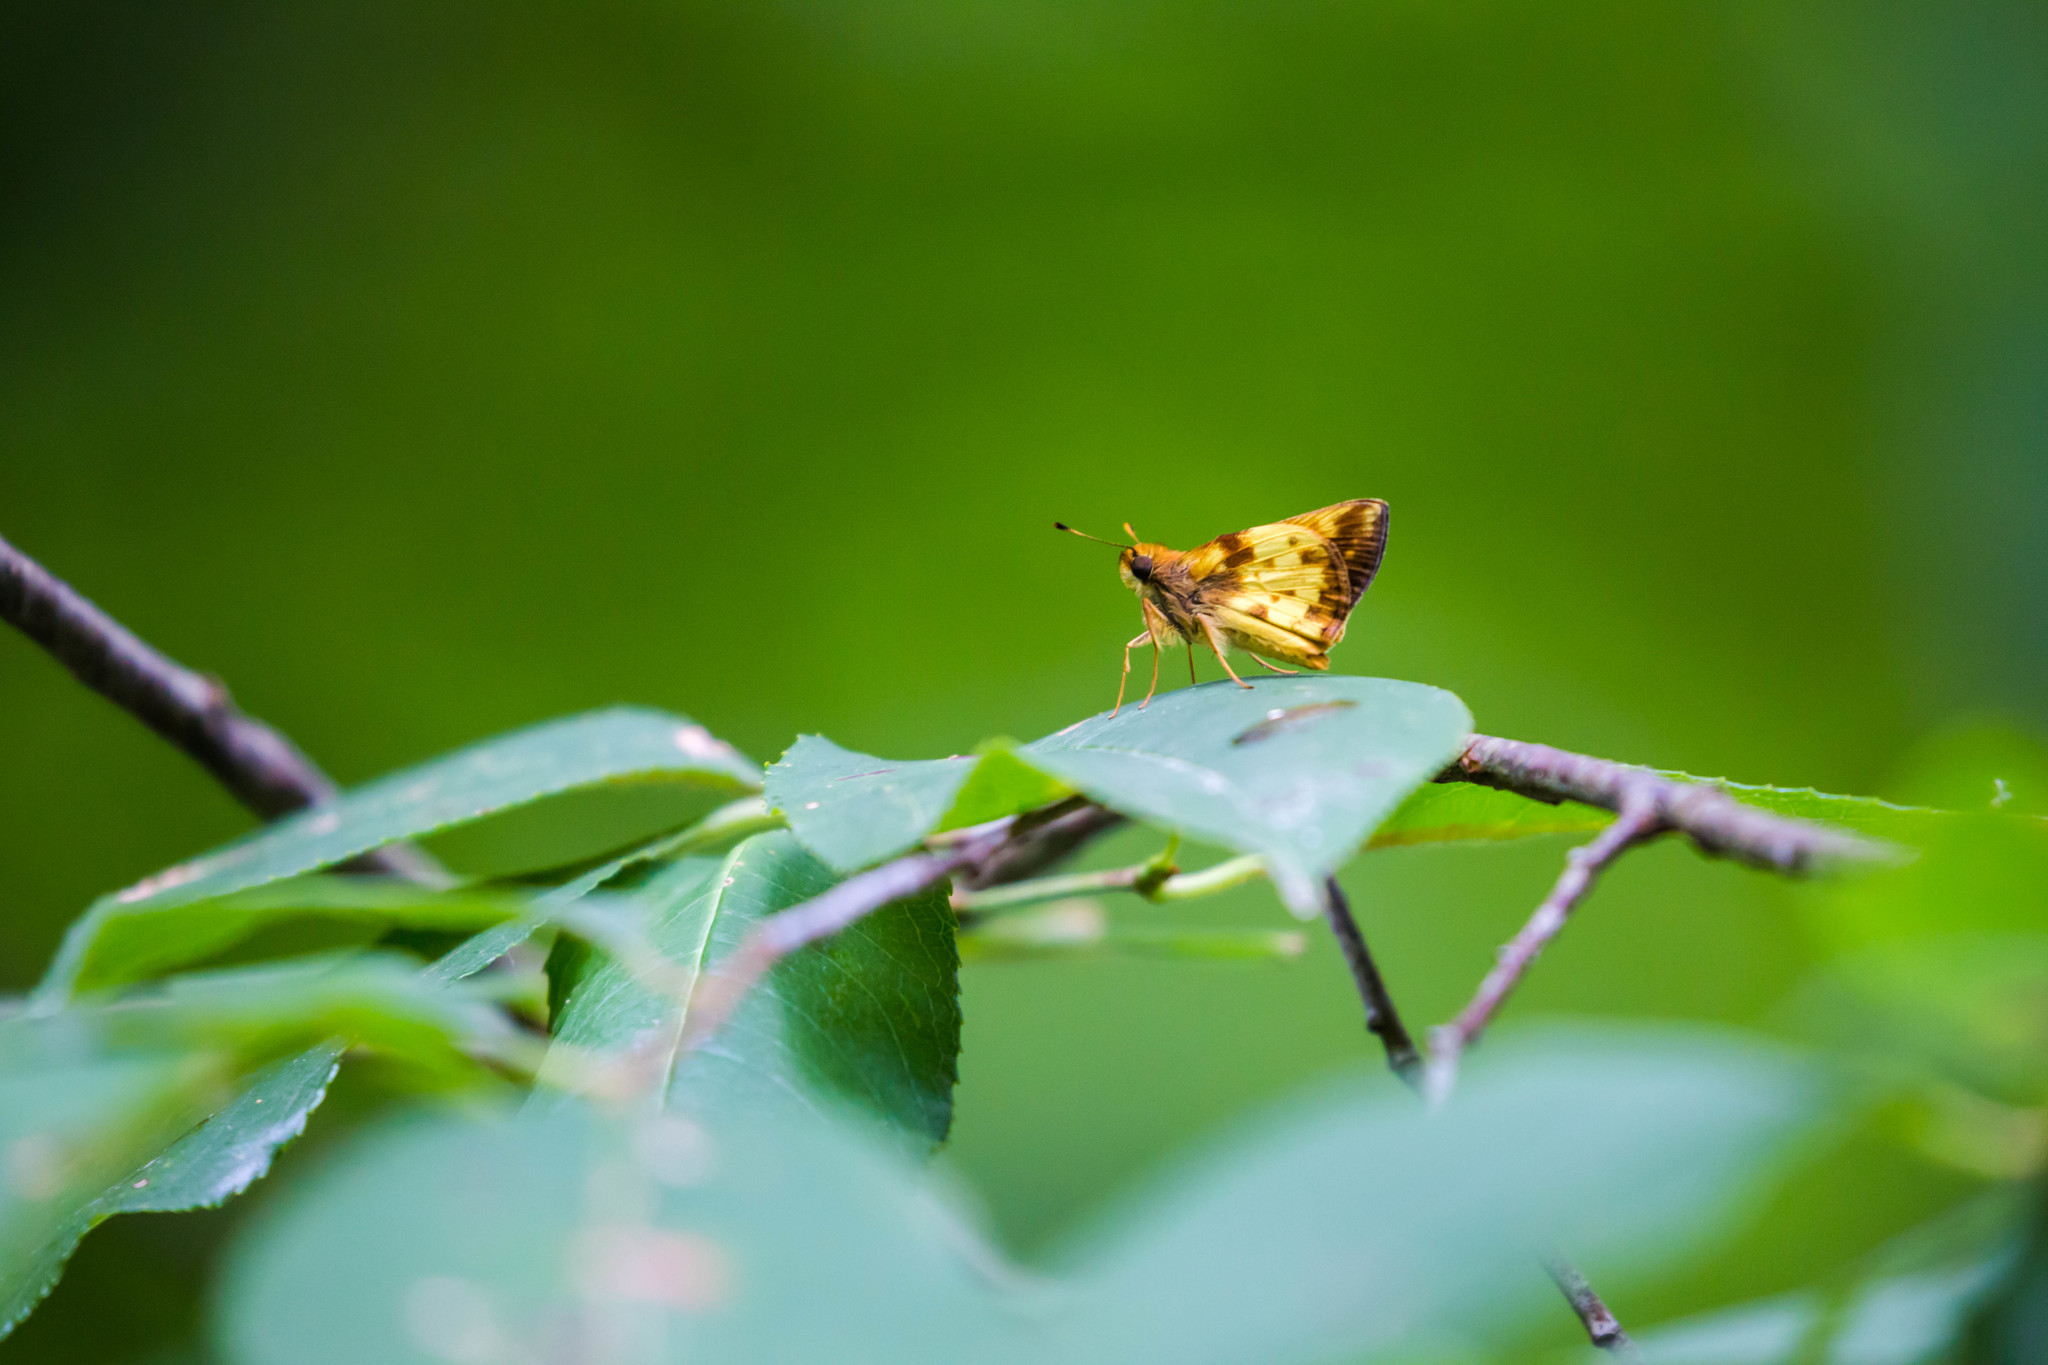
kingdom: Animalia
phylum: Arthropoda
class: Insecta
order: Lepidoptera
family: Hesperiidae
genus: Lon
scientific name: Lon zabulon
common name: Zabulon skipper
